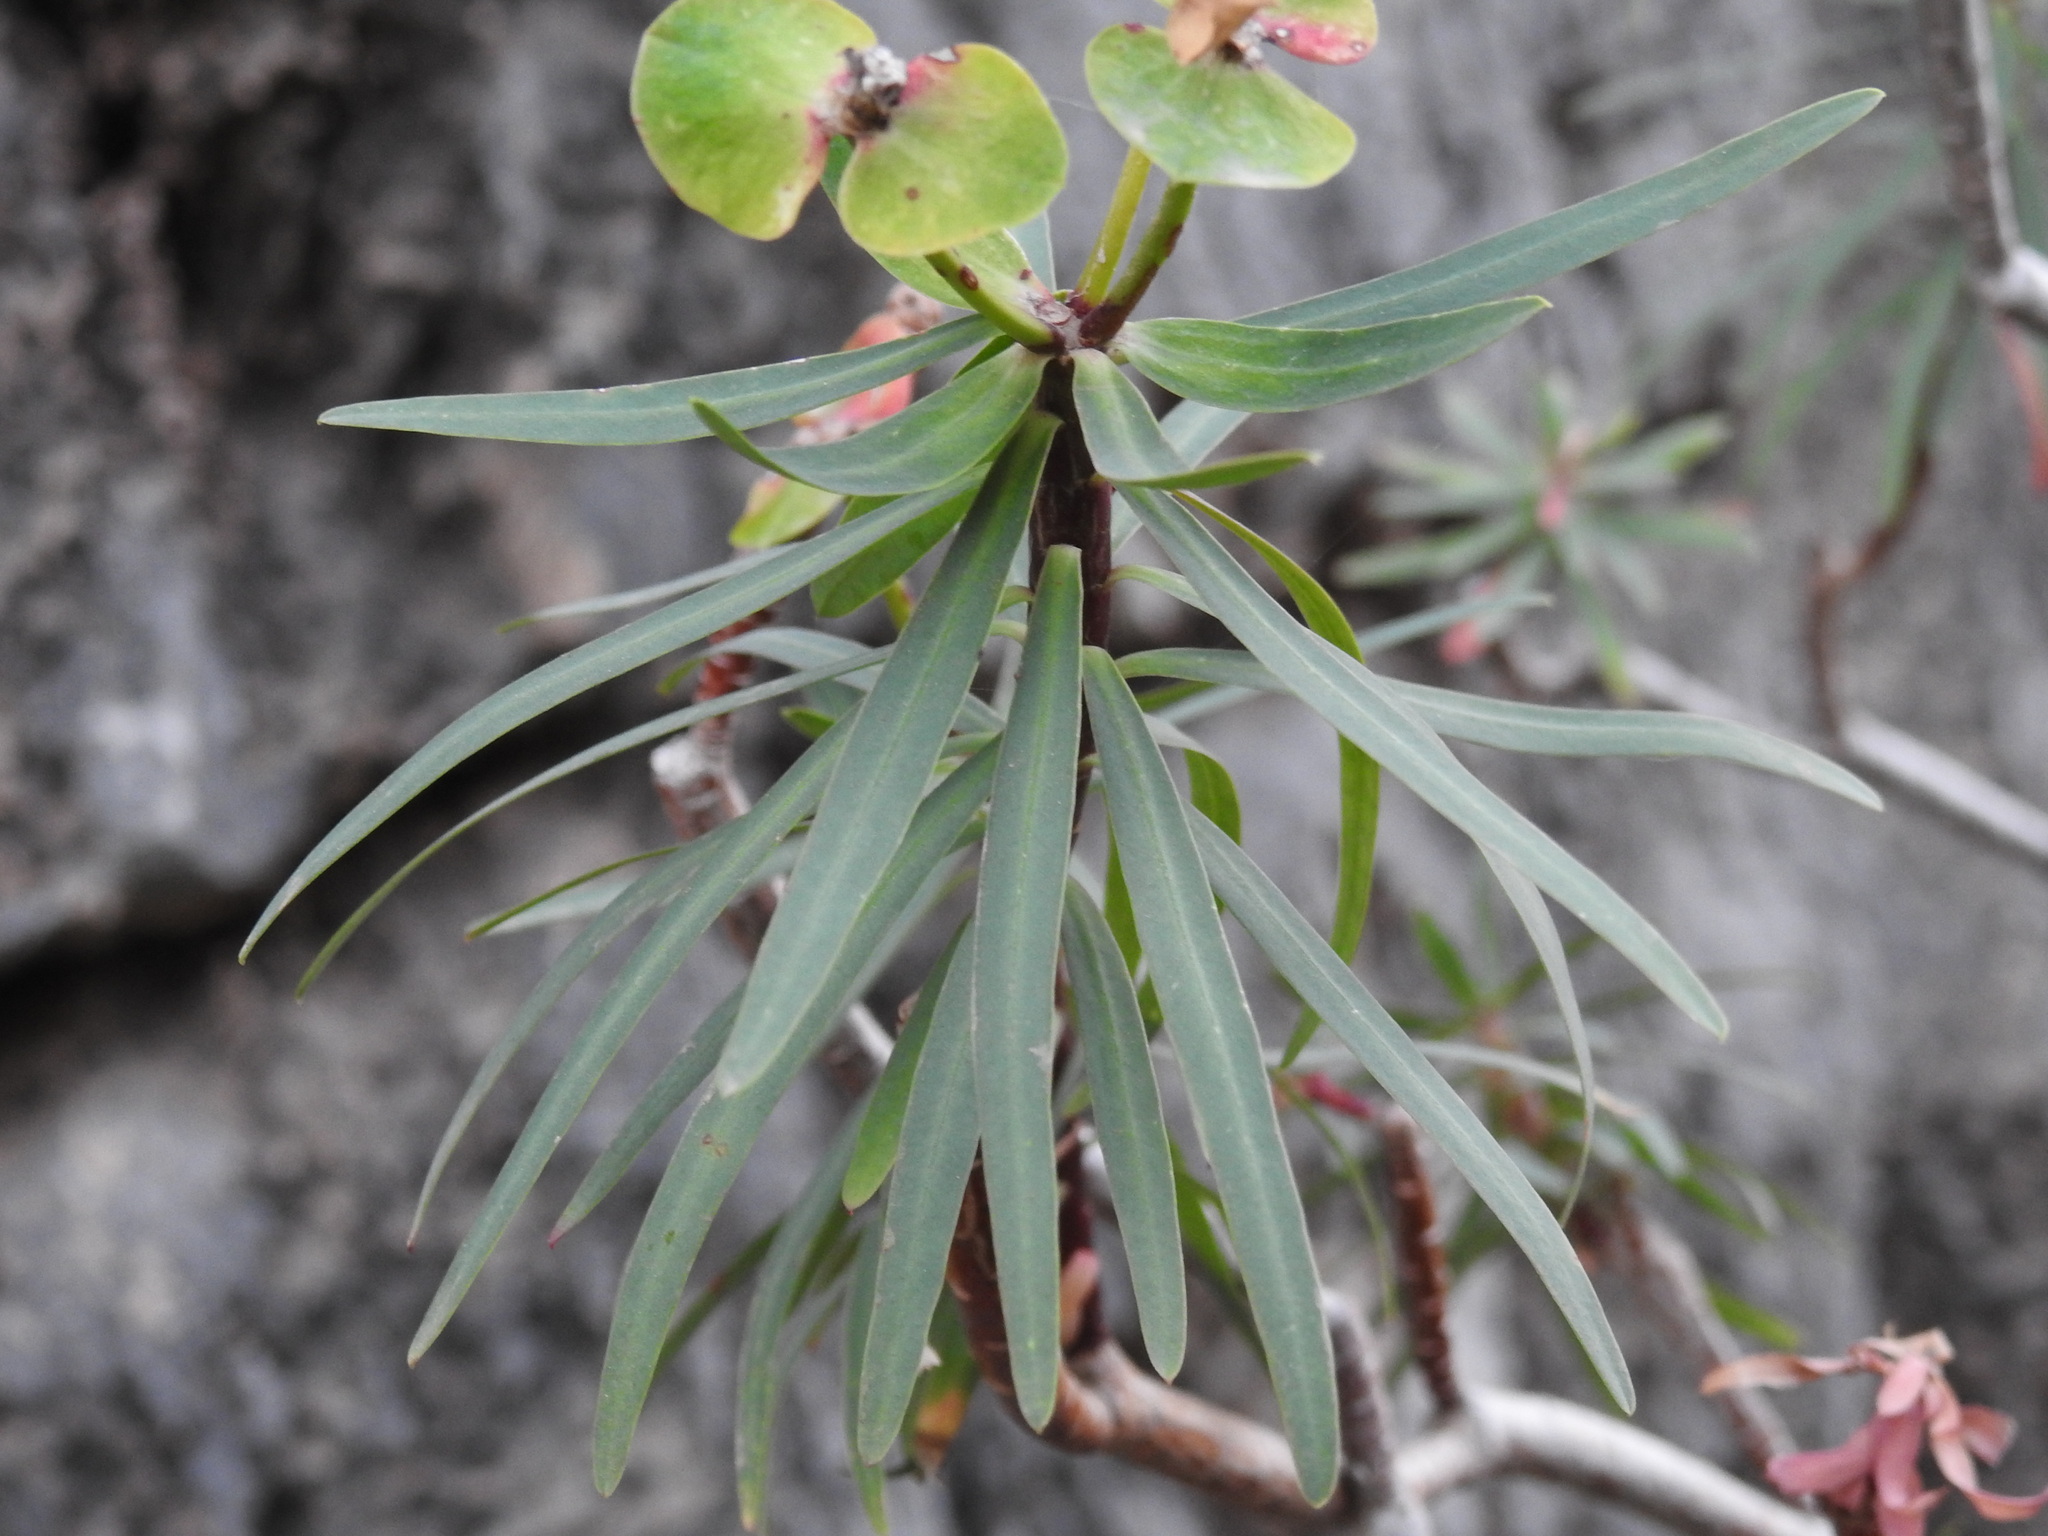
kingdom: Plantae
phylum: Tracheophyta
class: Magnoliopsida
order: Malpighiales
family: Euphorbiaceae
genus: Euphorbia
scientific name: Euphorbia dendroides
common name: Tree spurge
